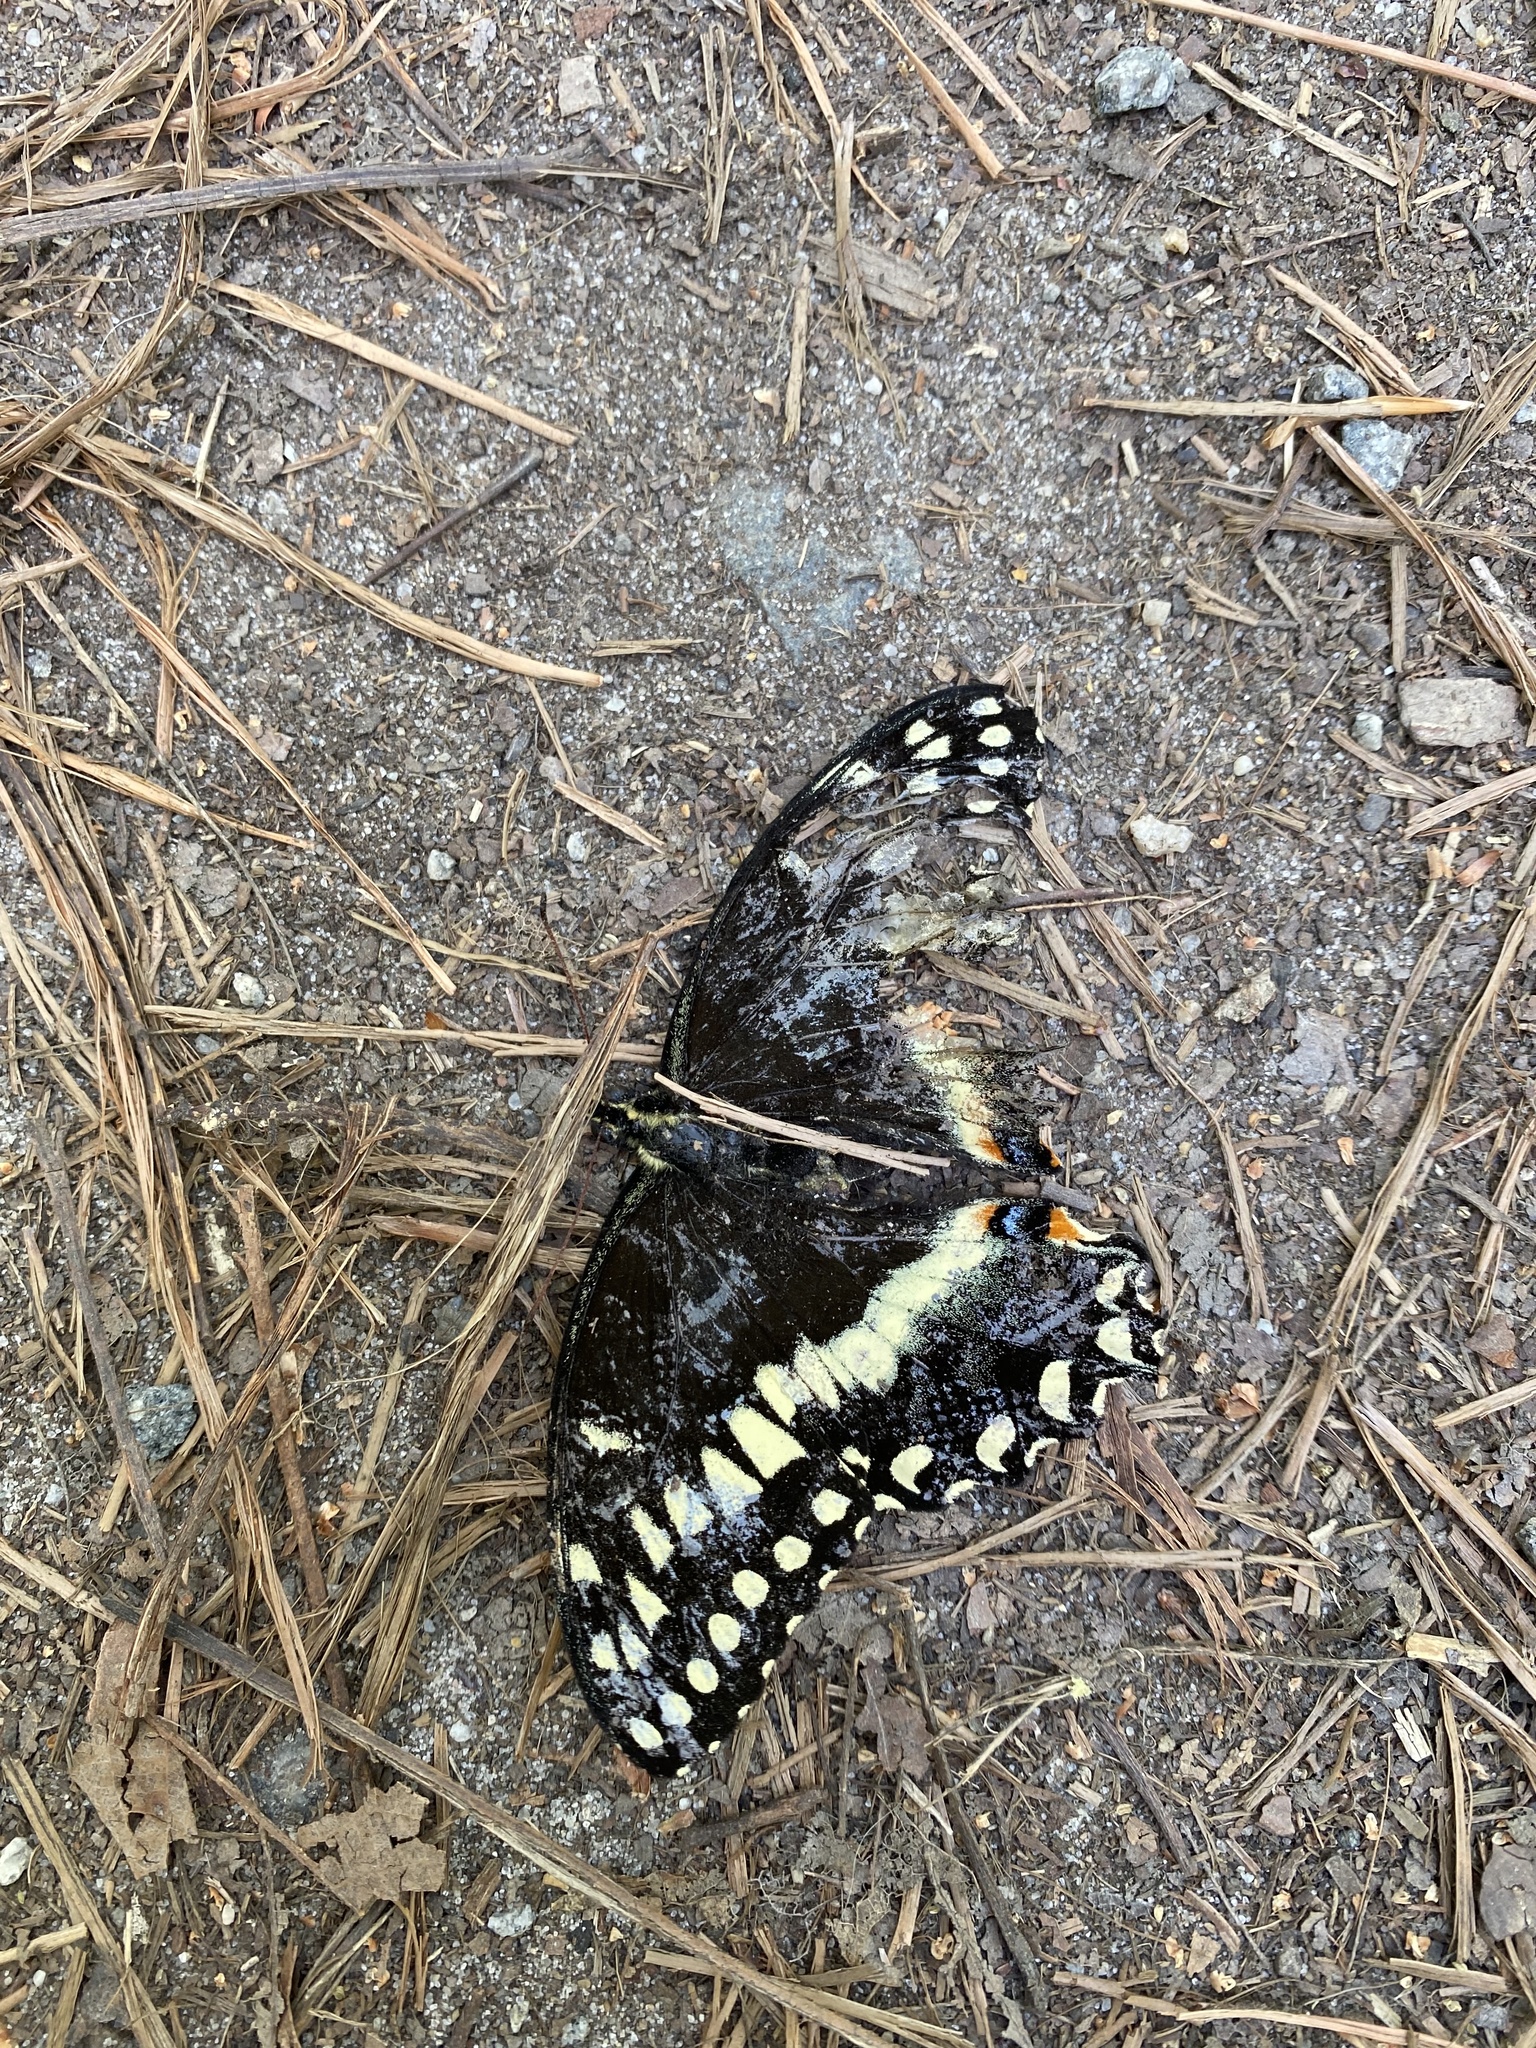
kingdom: Animalia
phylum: Arthropoda
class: Insecta
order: Lepidoptera
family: Papilionidae
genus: Papilio
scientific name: Papilio palamedes
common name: Palamedes swallowtail
